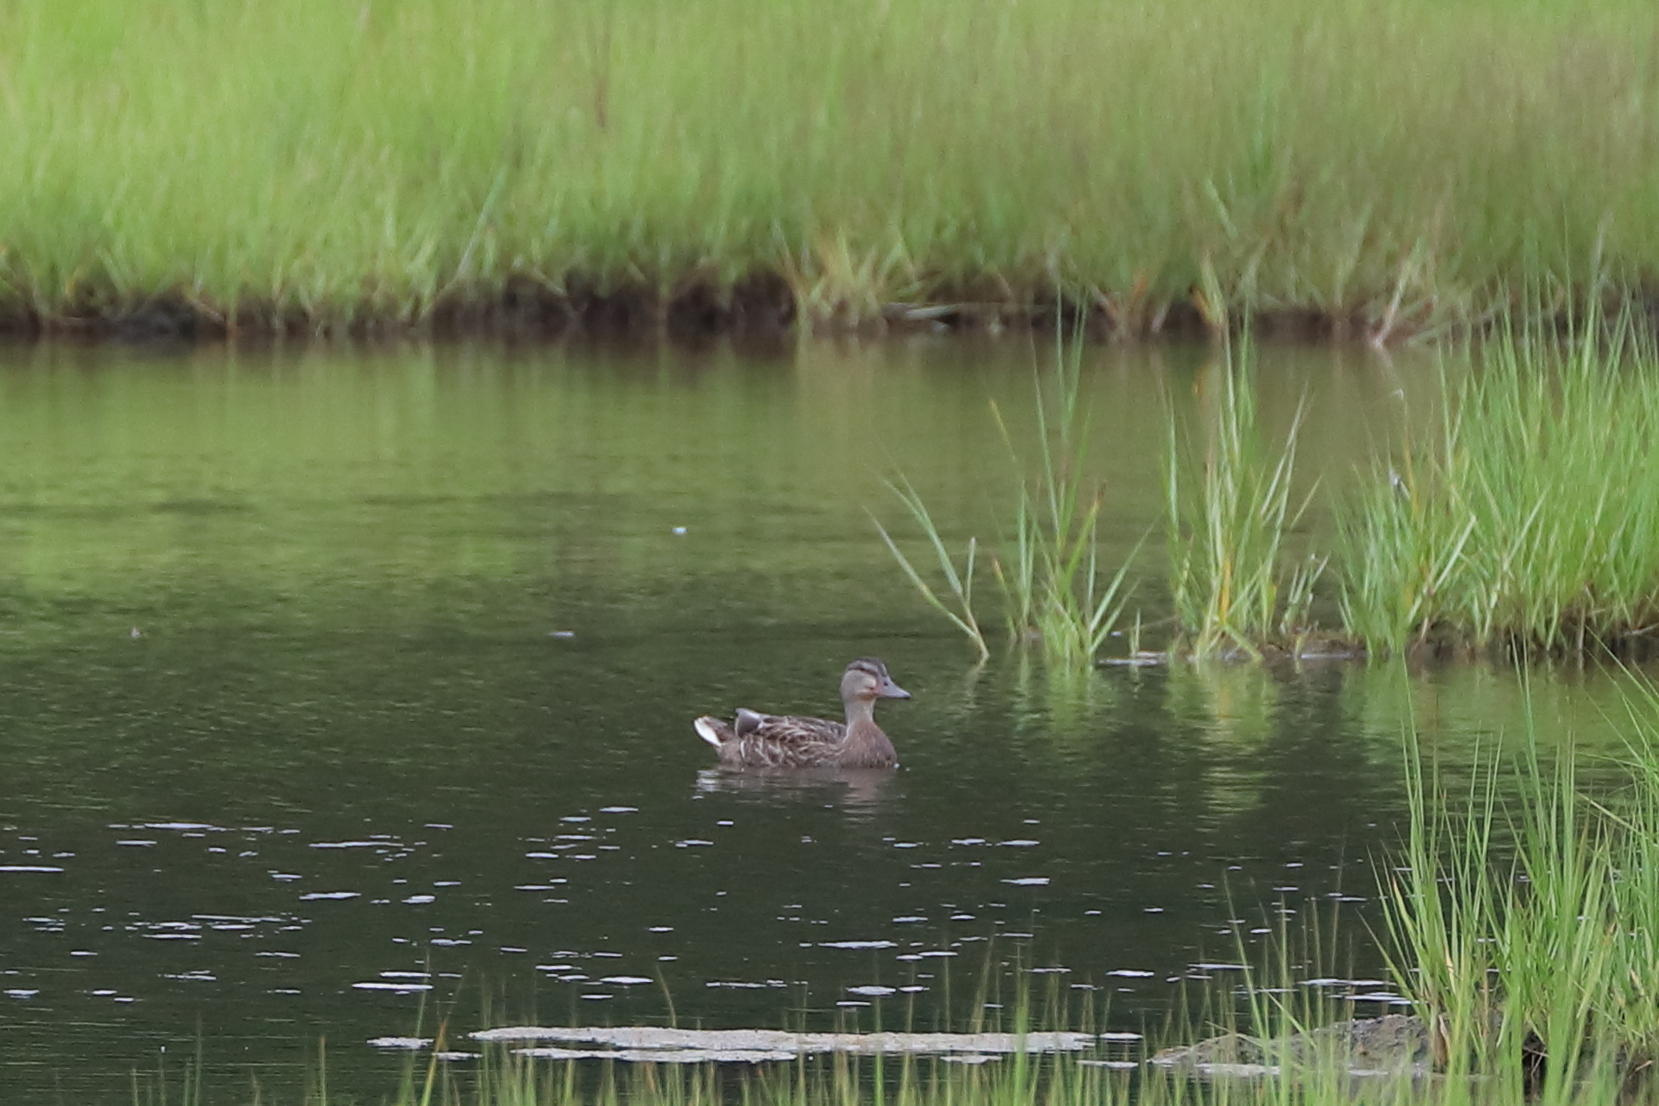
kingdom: Animalia
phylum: Chordata
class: Aves
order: Anseriformes
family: Anatidae
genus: Anas
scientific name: Anas platyrhynchos
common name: Mallard
